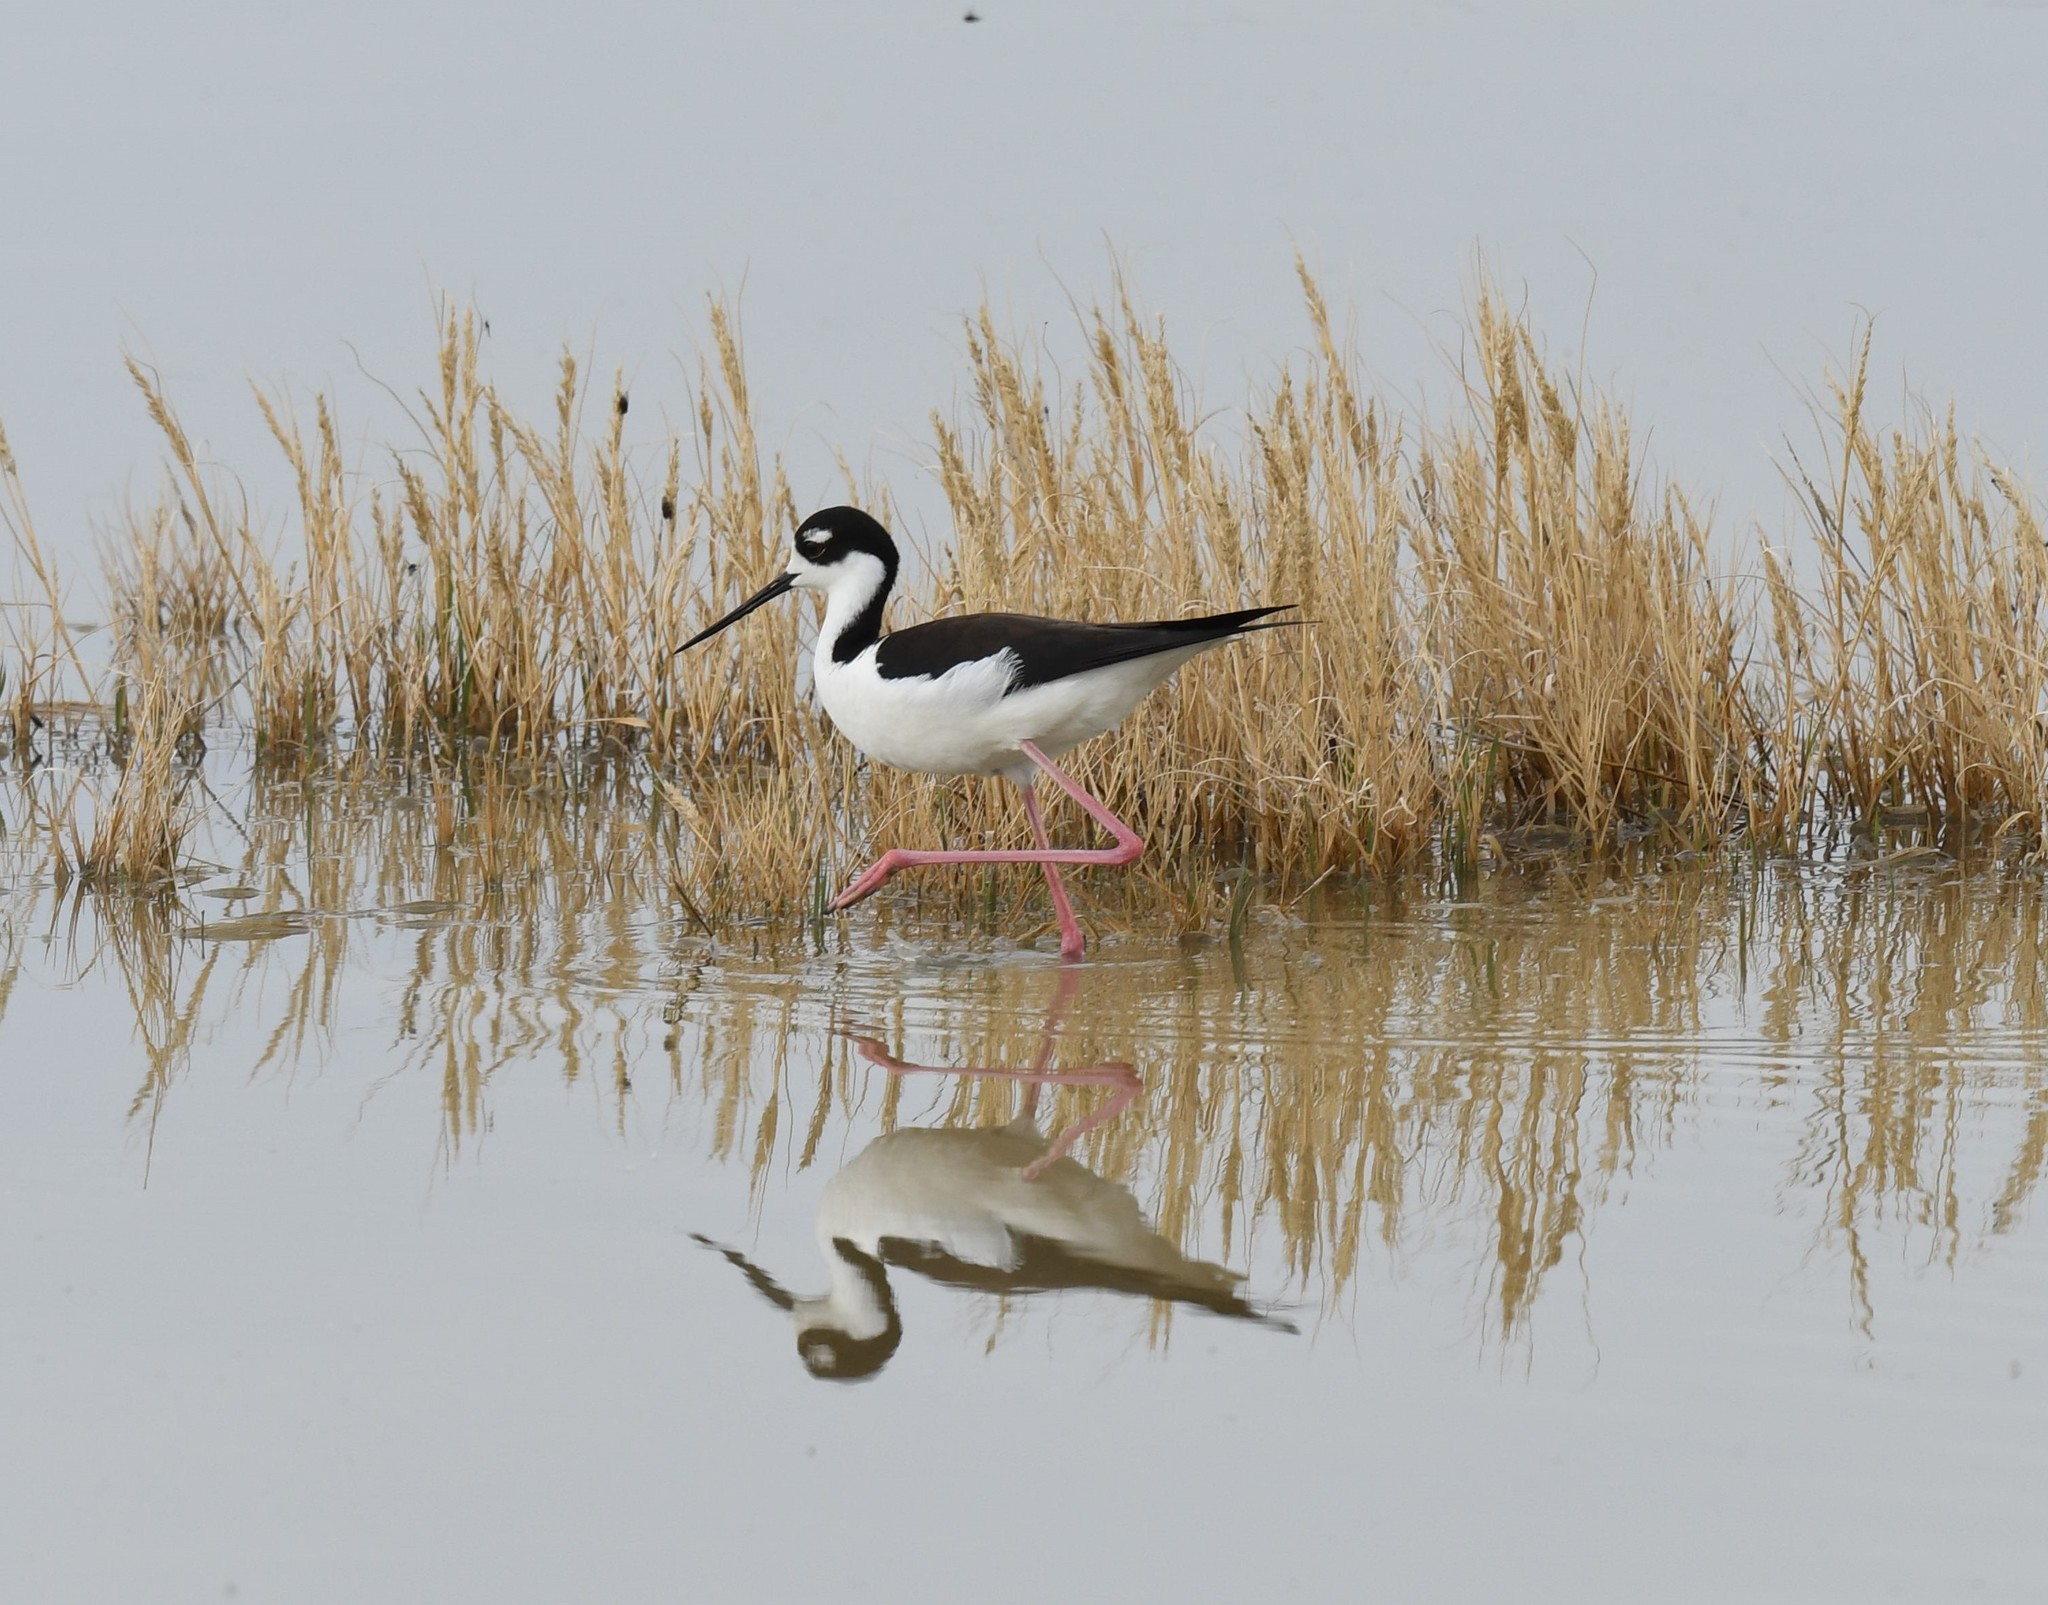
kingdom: Animalia
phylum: Chordata
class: Aves
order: Charadriiformes
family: Recurvirostridae
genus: Himantopus
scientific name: Himantopus mexicanus
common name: Black-necked stilt
